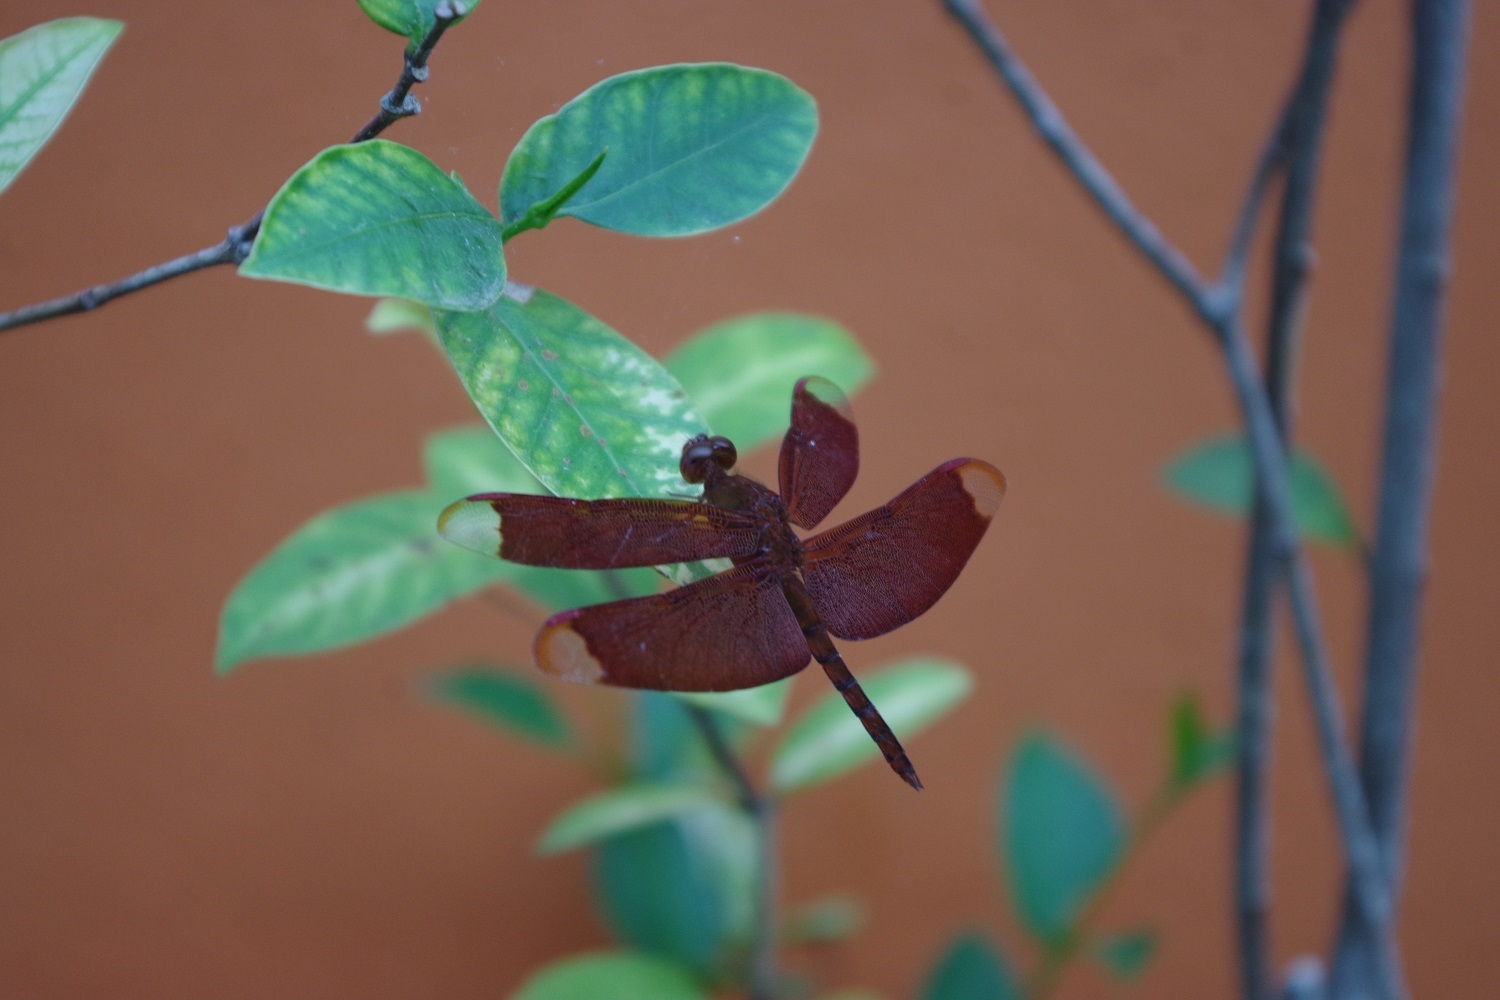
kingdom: Animalia
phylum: Arthropoda
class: Insecta
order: Odonata
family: Libellulidae
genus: Neurothemis
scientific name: Neurothemis fulvia
